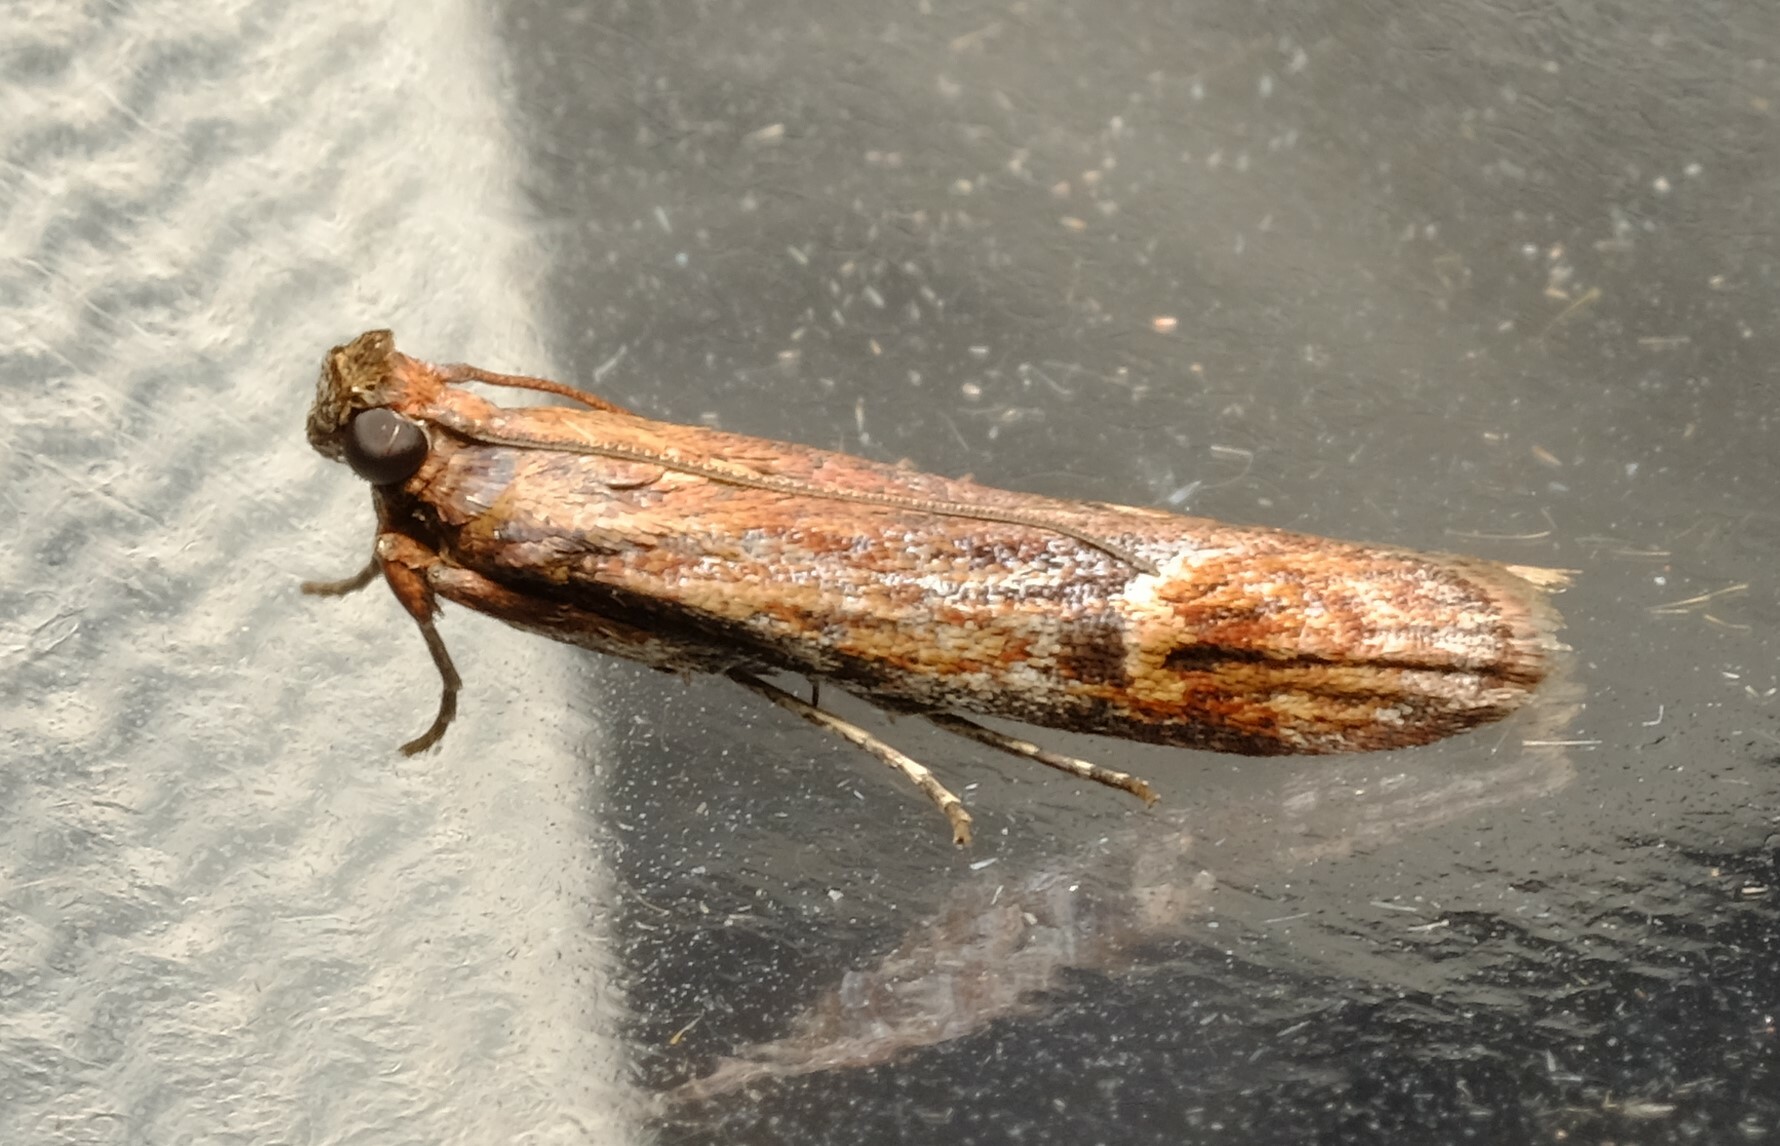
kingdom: Animalia
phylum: Arthropoda
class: Insecta
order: Lepidoptera
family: Pyralidae
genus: Balanomis
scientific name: Balanomis encyclia
